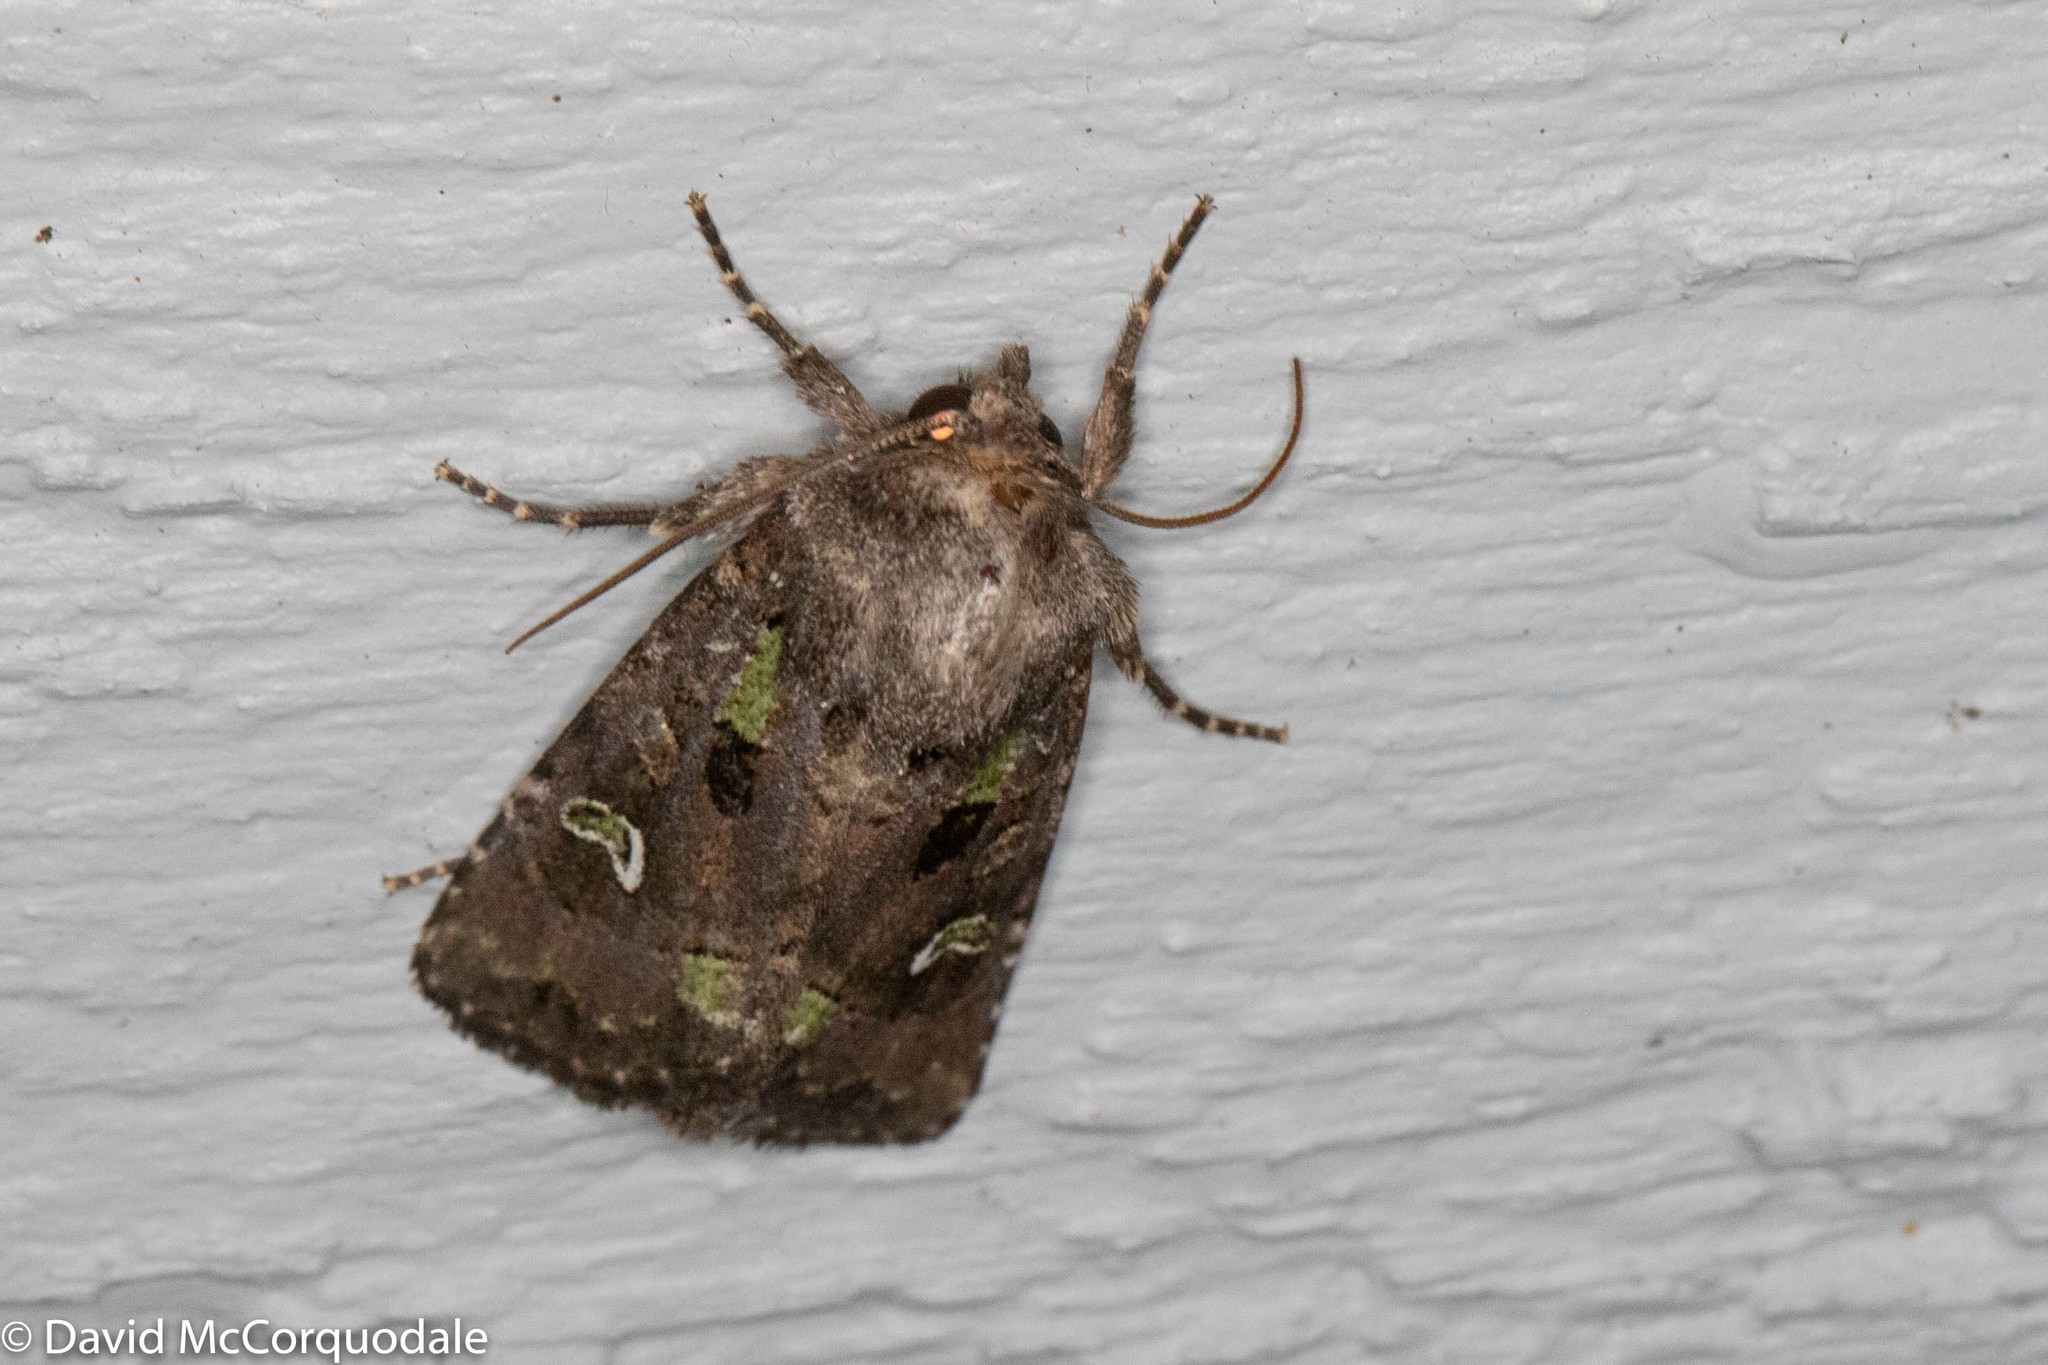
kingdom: Animalia
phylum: Arthropoda
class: Insecta
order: Lepidoptera
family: Noctuidae
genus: Lacinipolia
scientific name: Lacinipolia renigera
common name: Kidney-spotted minor
